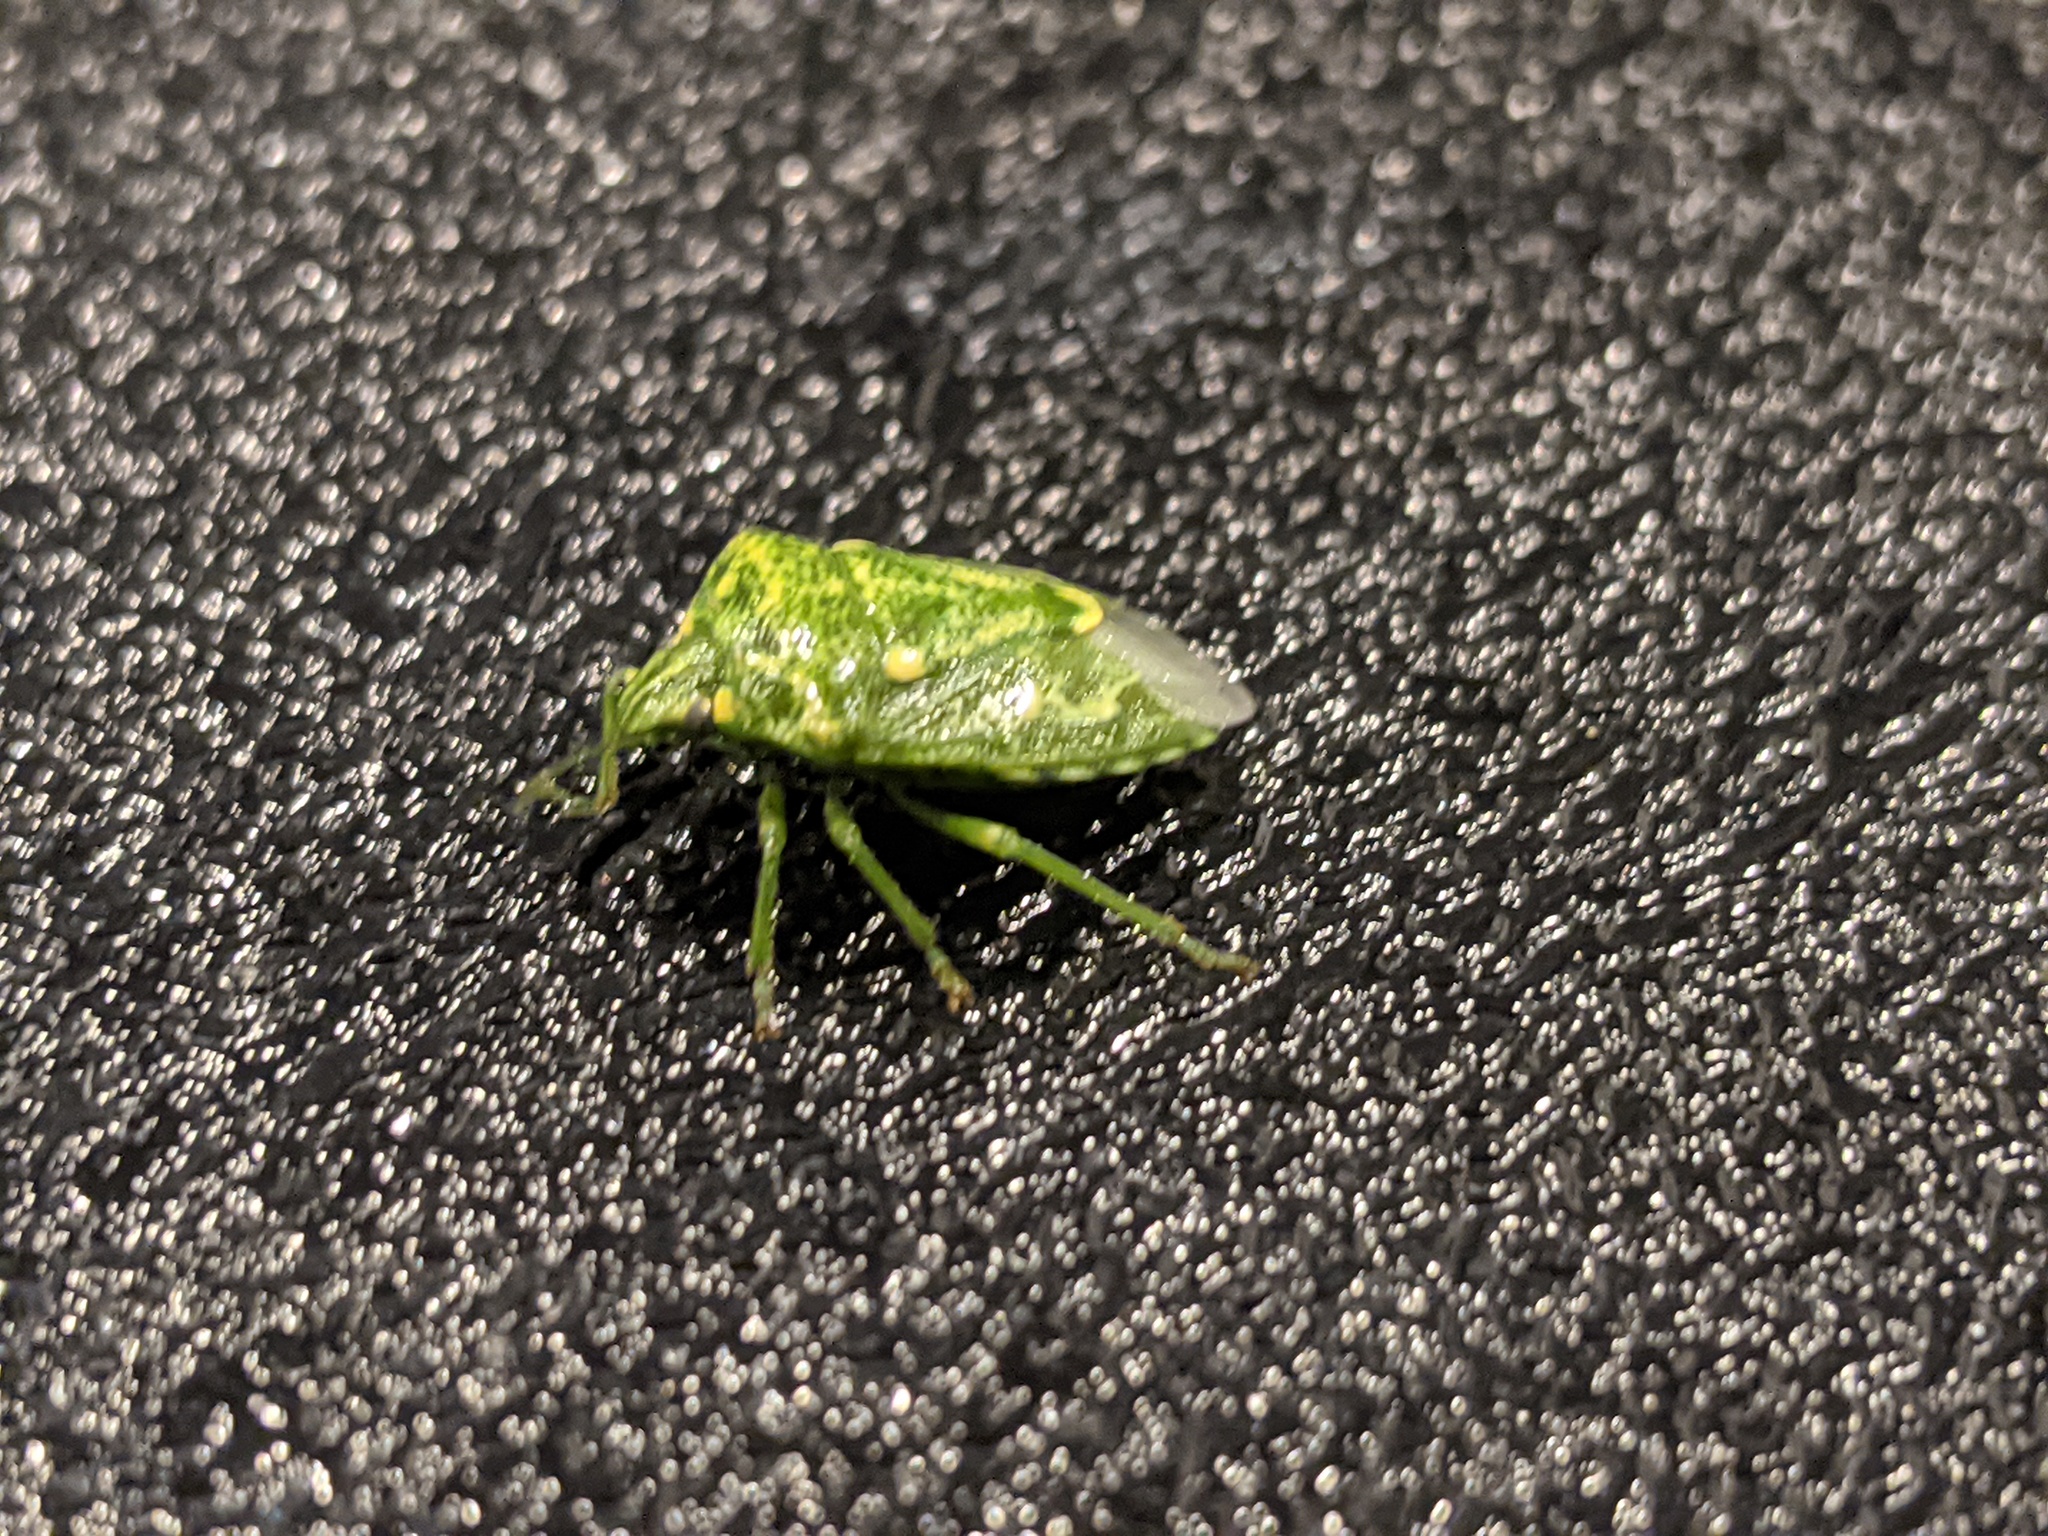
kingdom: Animalia
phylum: Arthropoda
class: Insecta
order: Hemiptera
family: Pentatomidae
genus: Banasa
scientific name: Banasa euchlora
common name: Cedar berry bug
